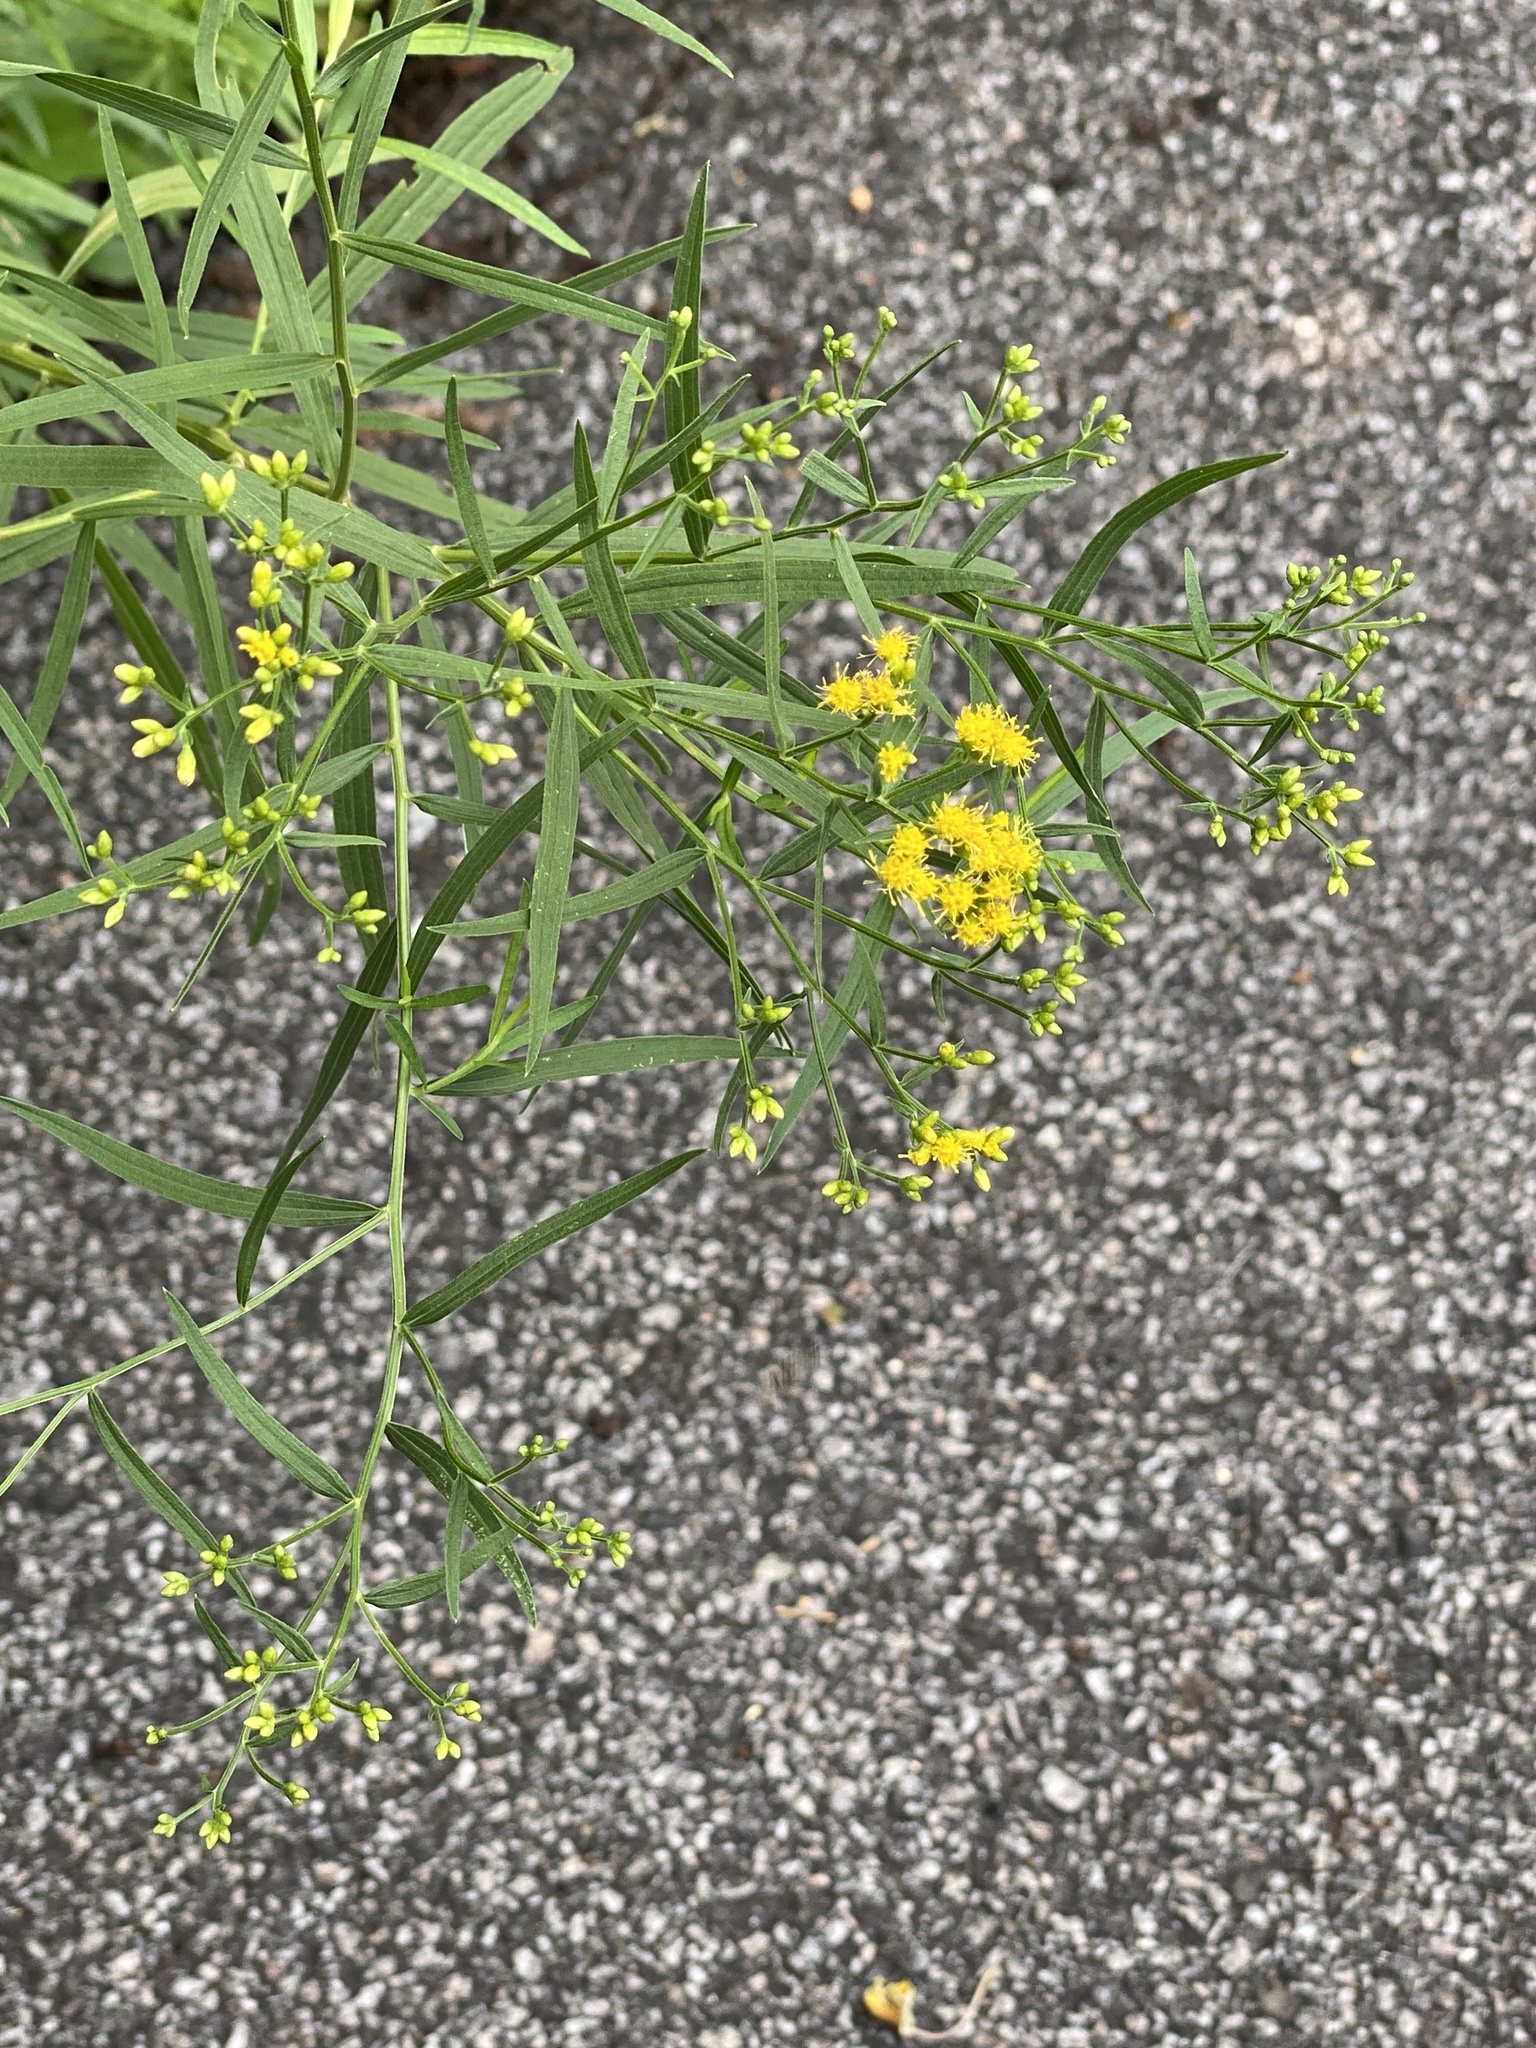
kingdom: Plantae
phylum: Tracheophyta
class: Magnoliopsida
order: Asterales
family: Asteraceae
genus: Euthamia
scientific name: Euthamia graminifolia
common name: Common goldentop
